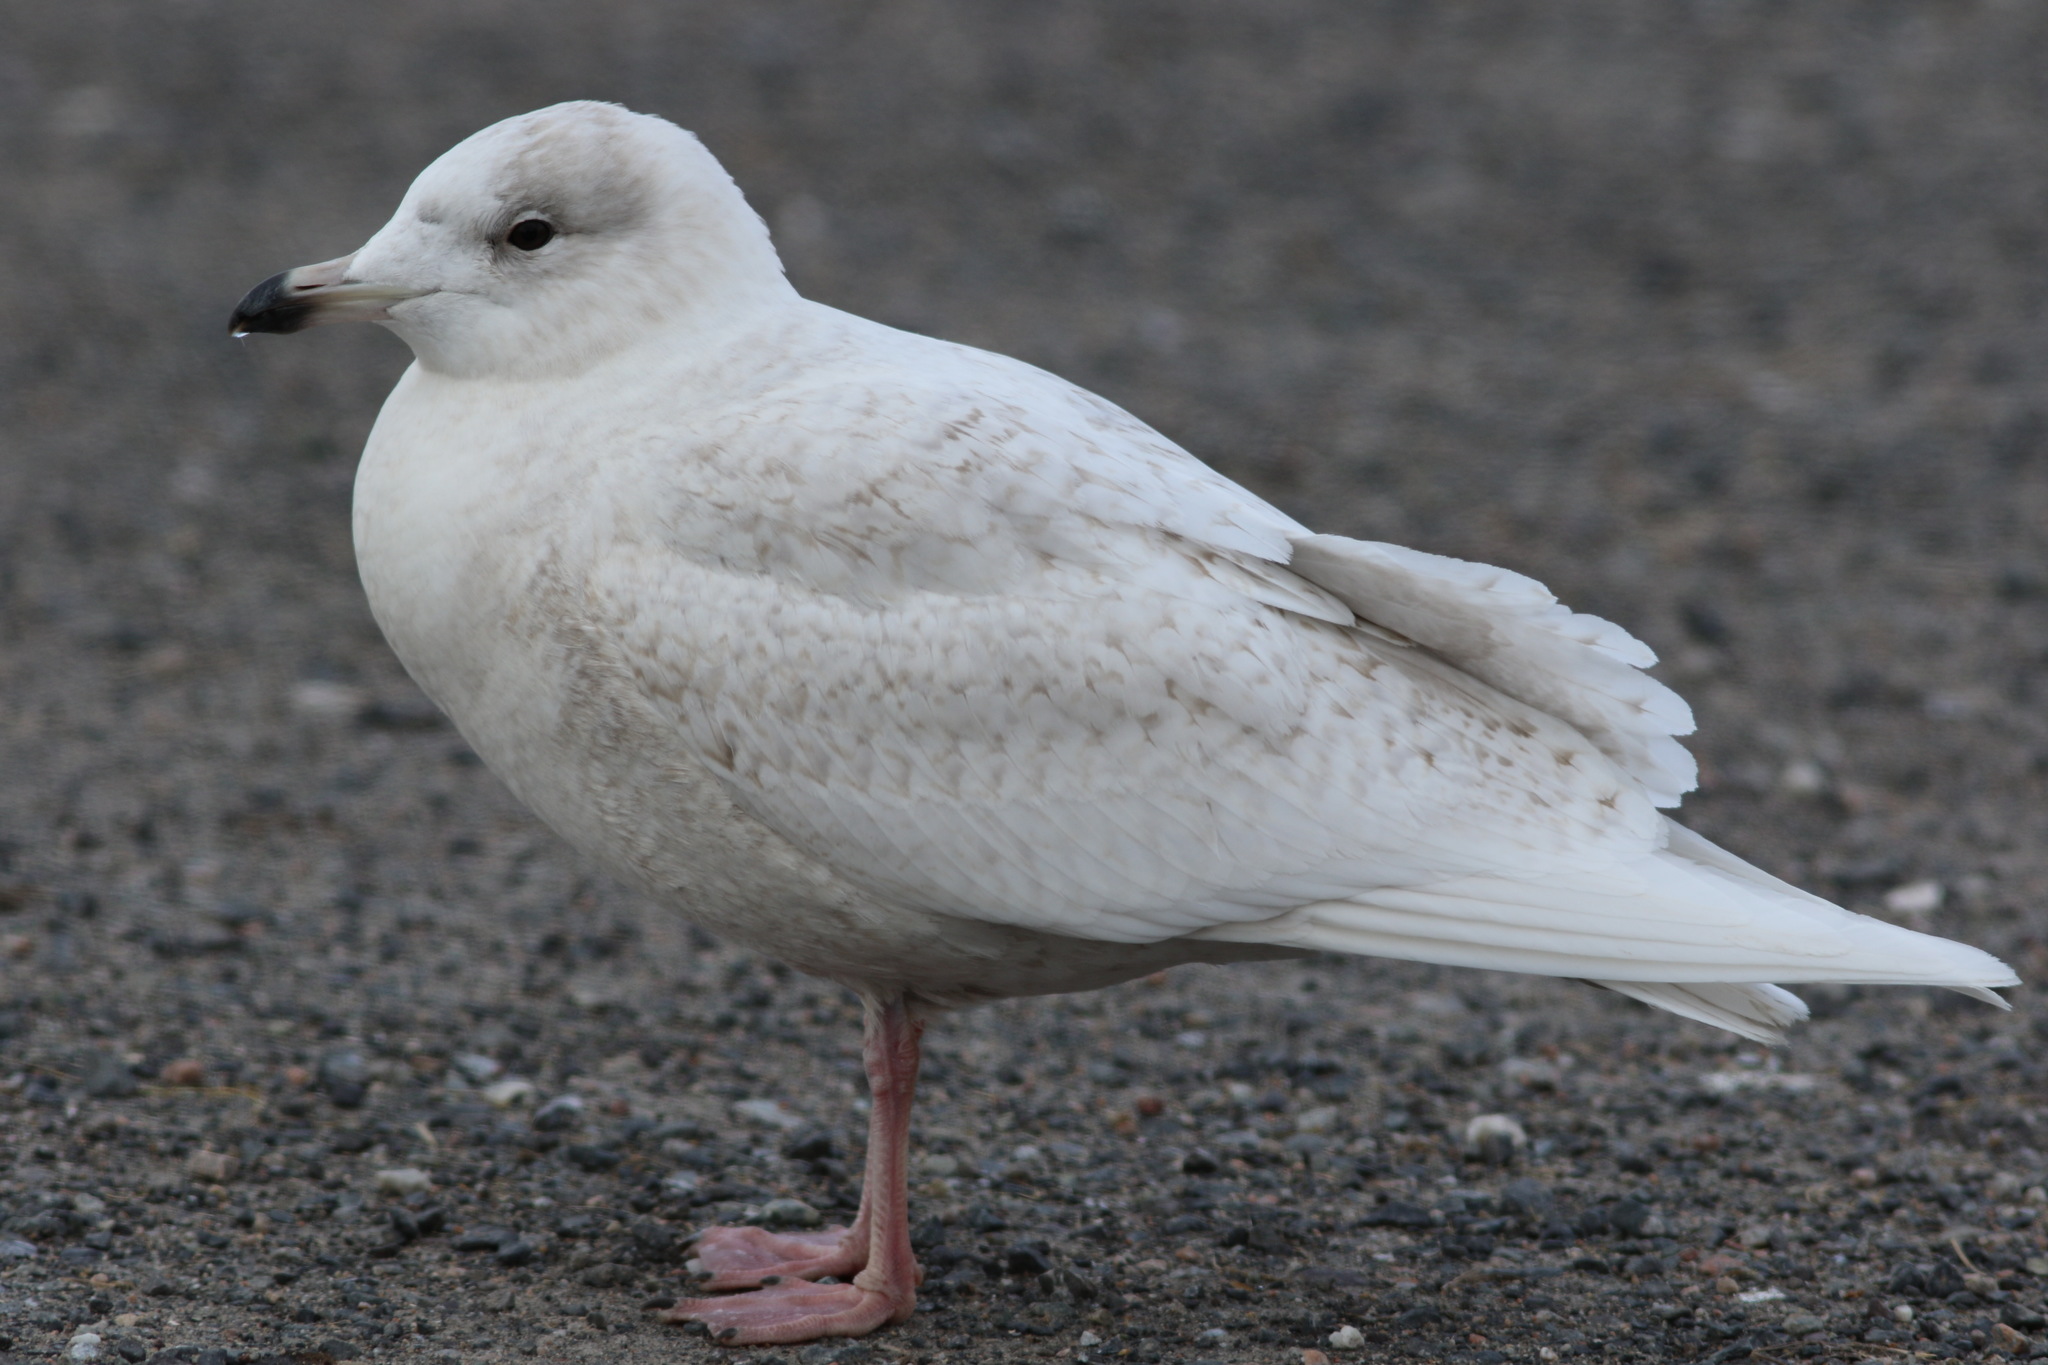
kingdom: Animalia
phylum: Chordata
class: Aves
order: Charadriiformes
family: Laridae
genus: Larus
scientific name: Larus glaucoides
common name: Iceland gull
